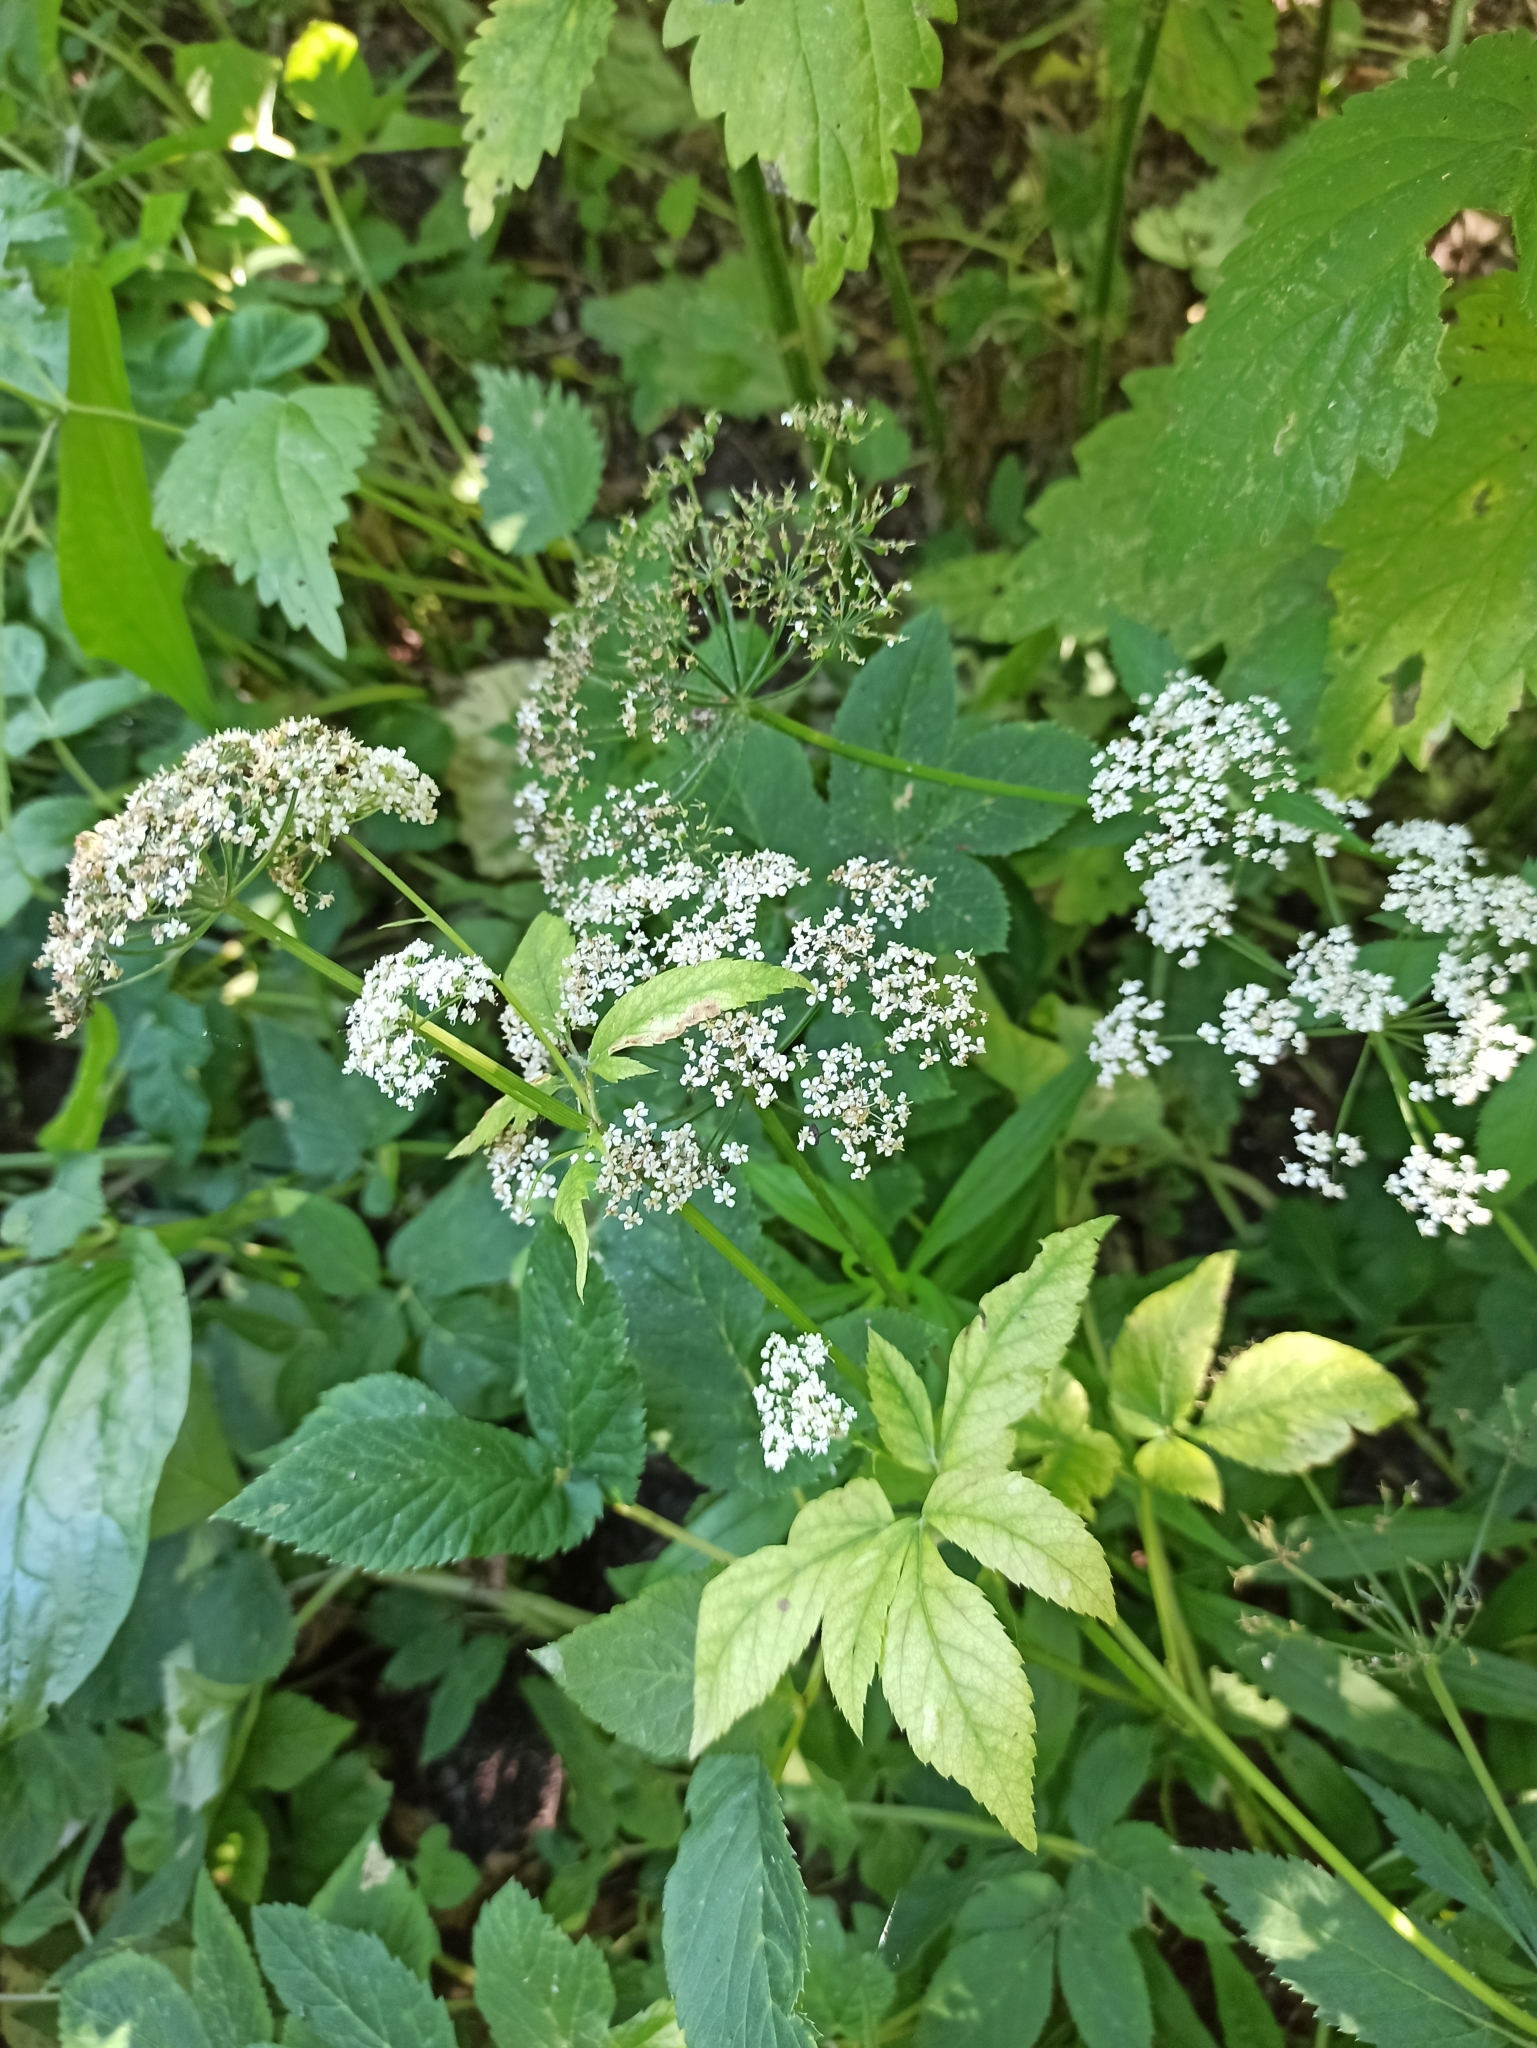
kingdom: Plantae
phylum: Tracheophyta
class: Magnoliopsida
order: Apiales
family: Apiaceae
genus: Aegopodium
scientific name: Aegopodium podagraria
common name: Ground-elder
